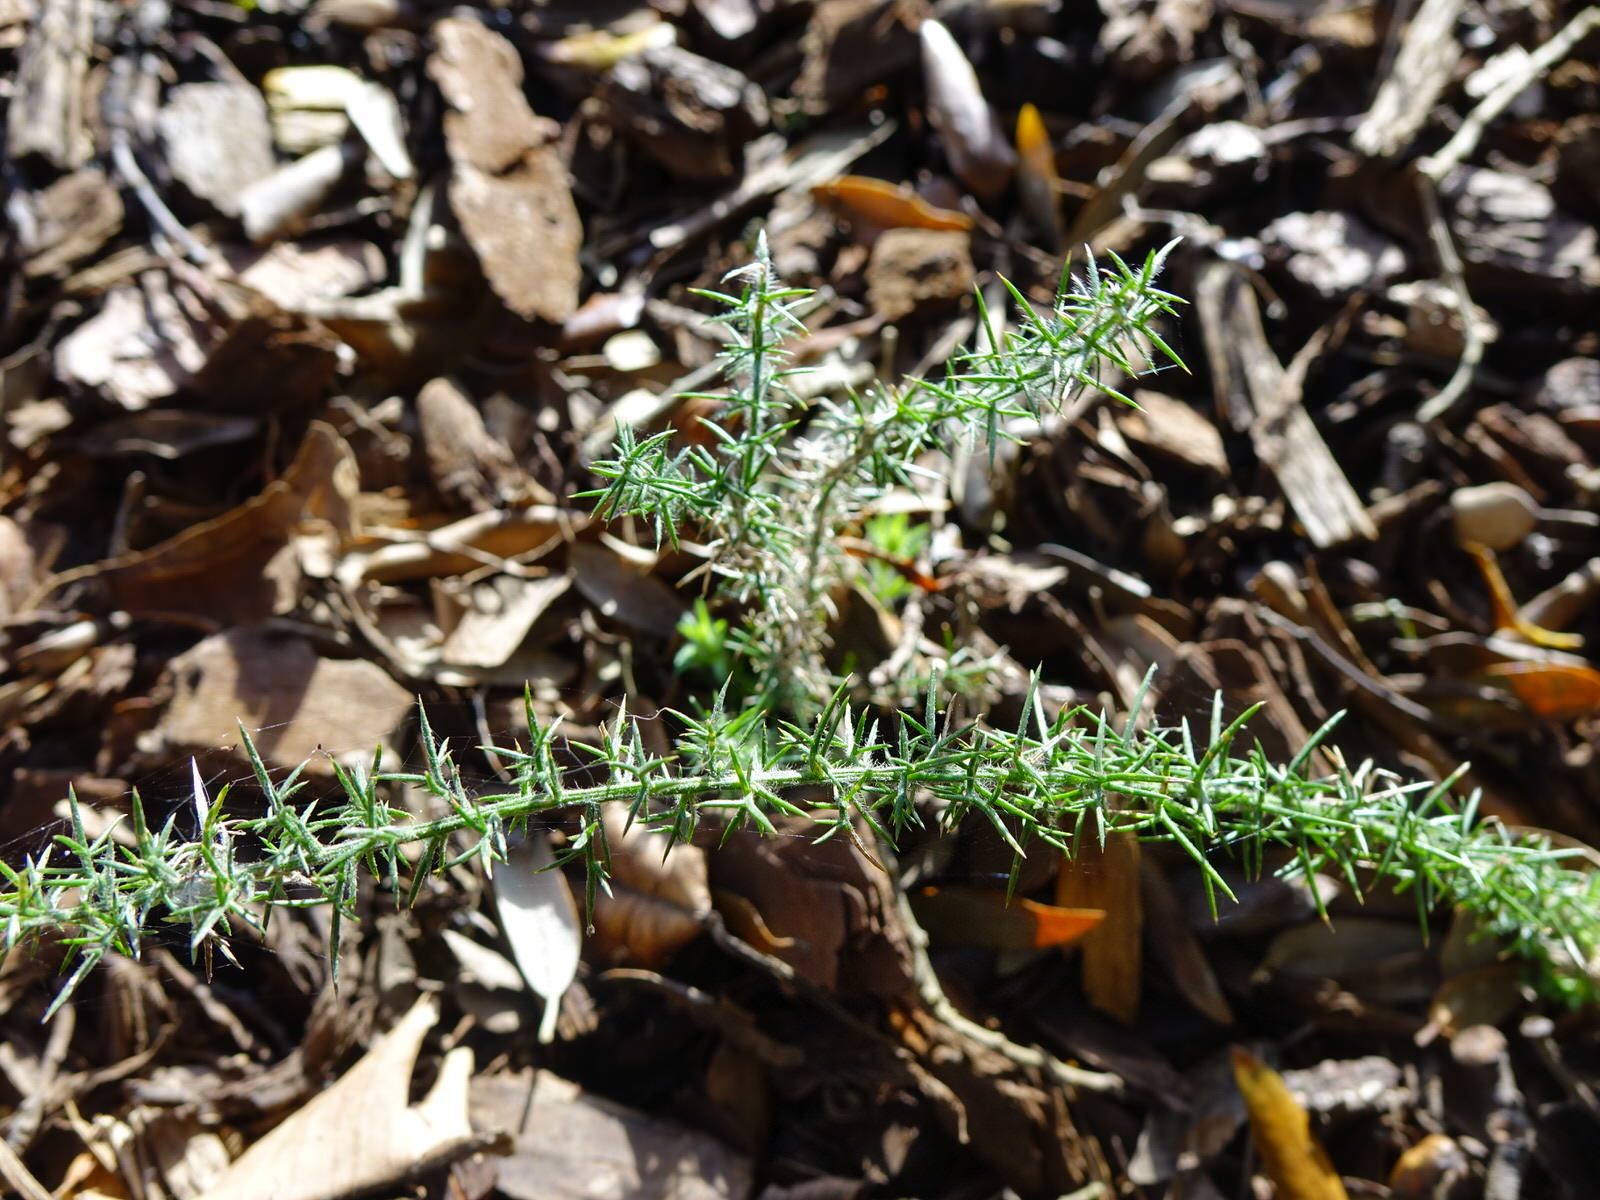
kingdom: Plantae
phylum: Tracheophyta
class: Magnoliopsida
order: Fabales
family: Fabaceae
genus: Ulex
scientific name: Ulex europaeus
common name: Common gorse
